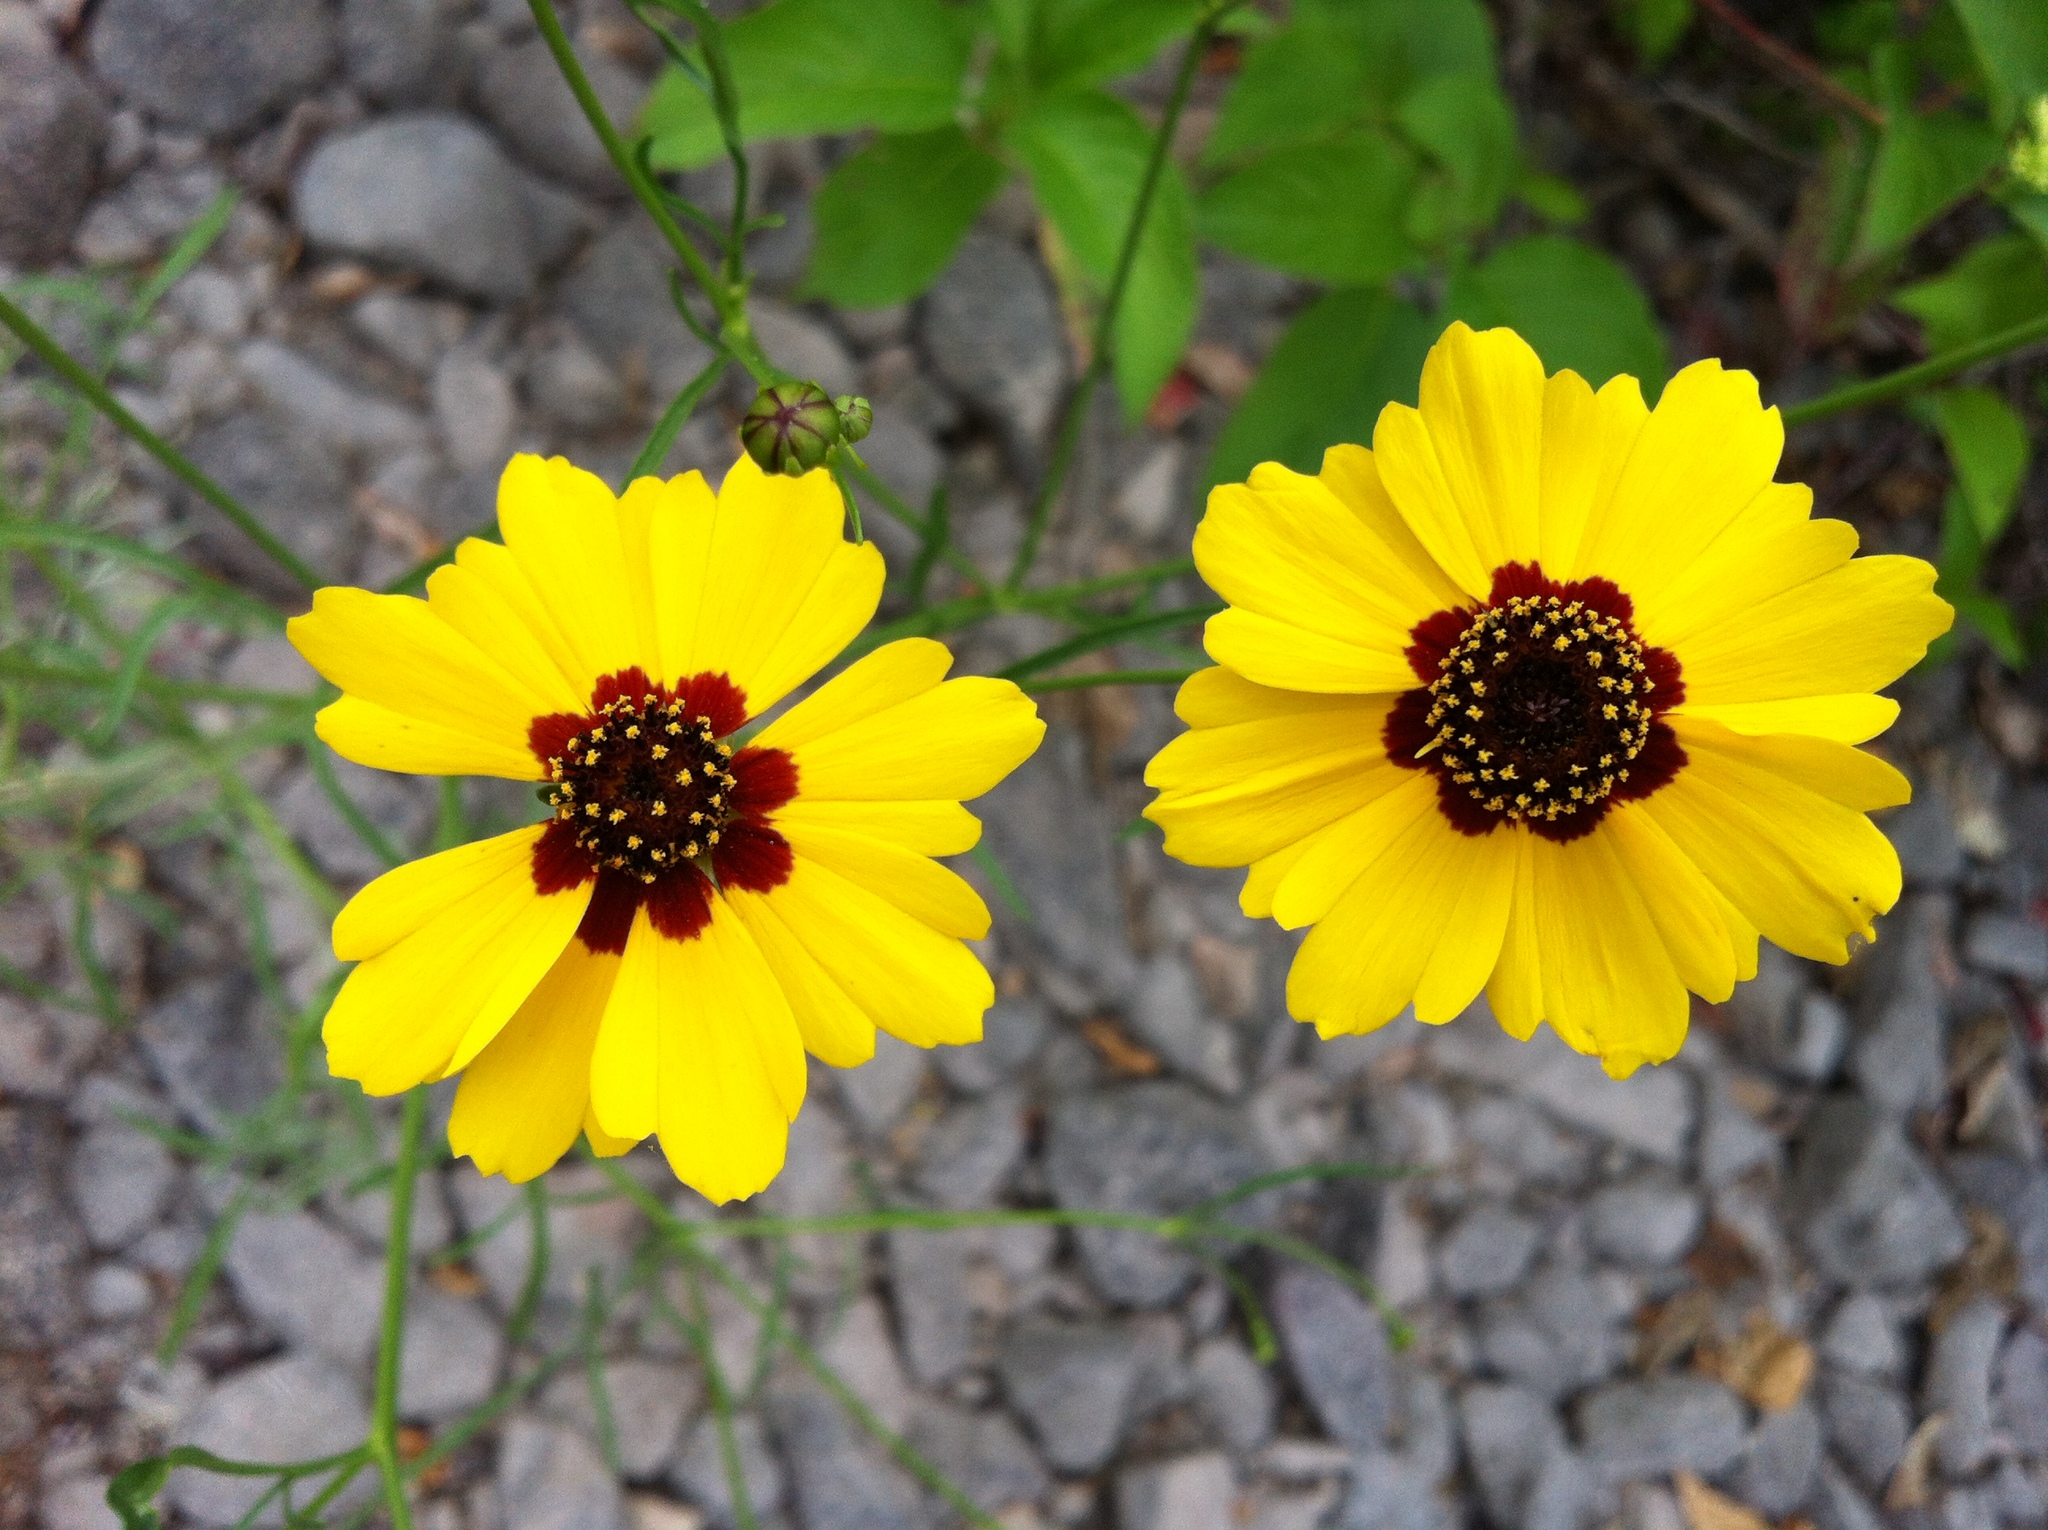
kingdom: Plantae
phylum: Tracheophyta
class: Magnoliopsida
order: Asterales
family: Asteraceae
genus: Coreopsis
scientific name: Coreopsis tinctoria
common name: Garden tickseed
